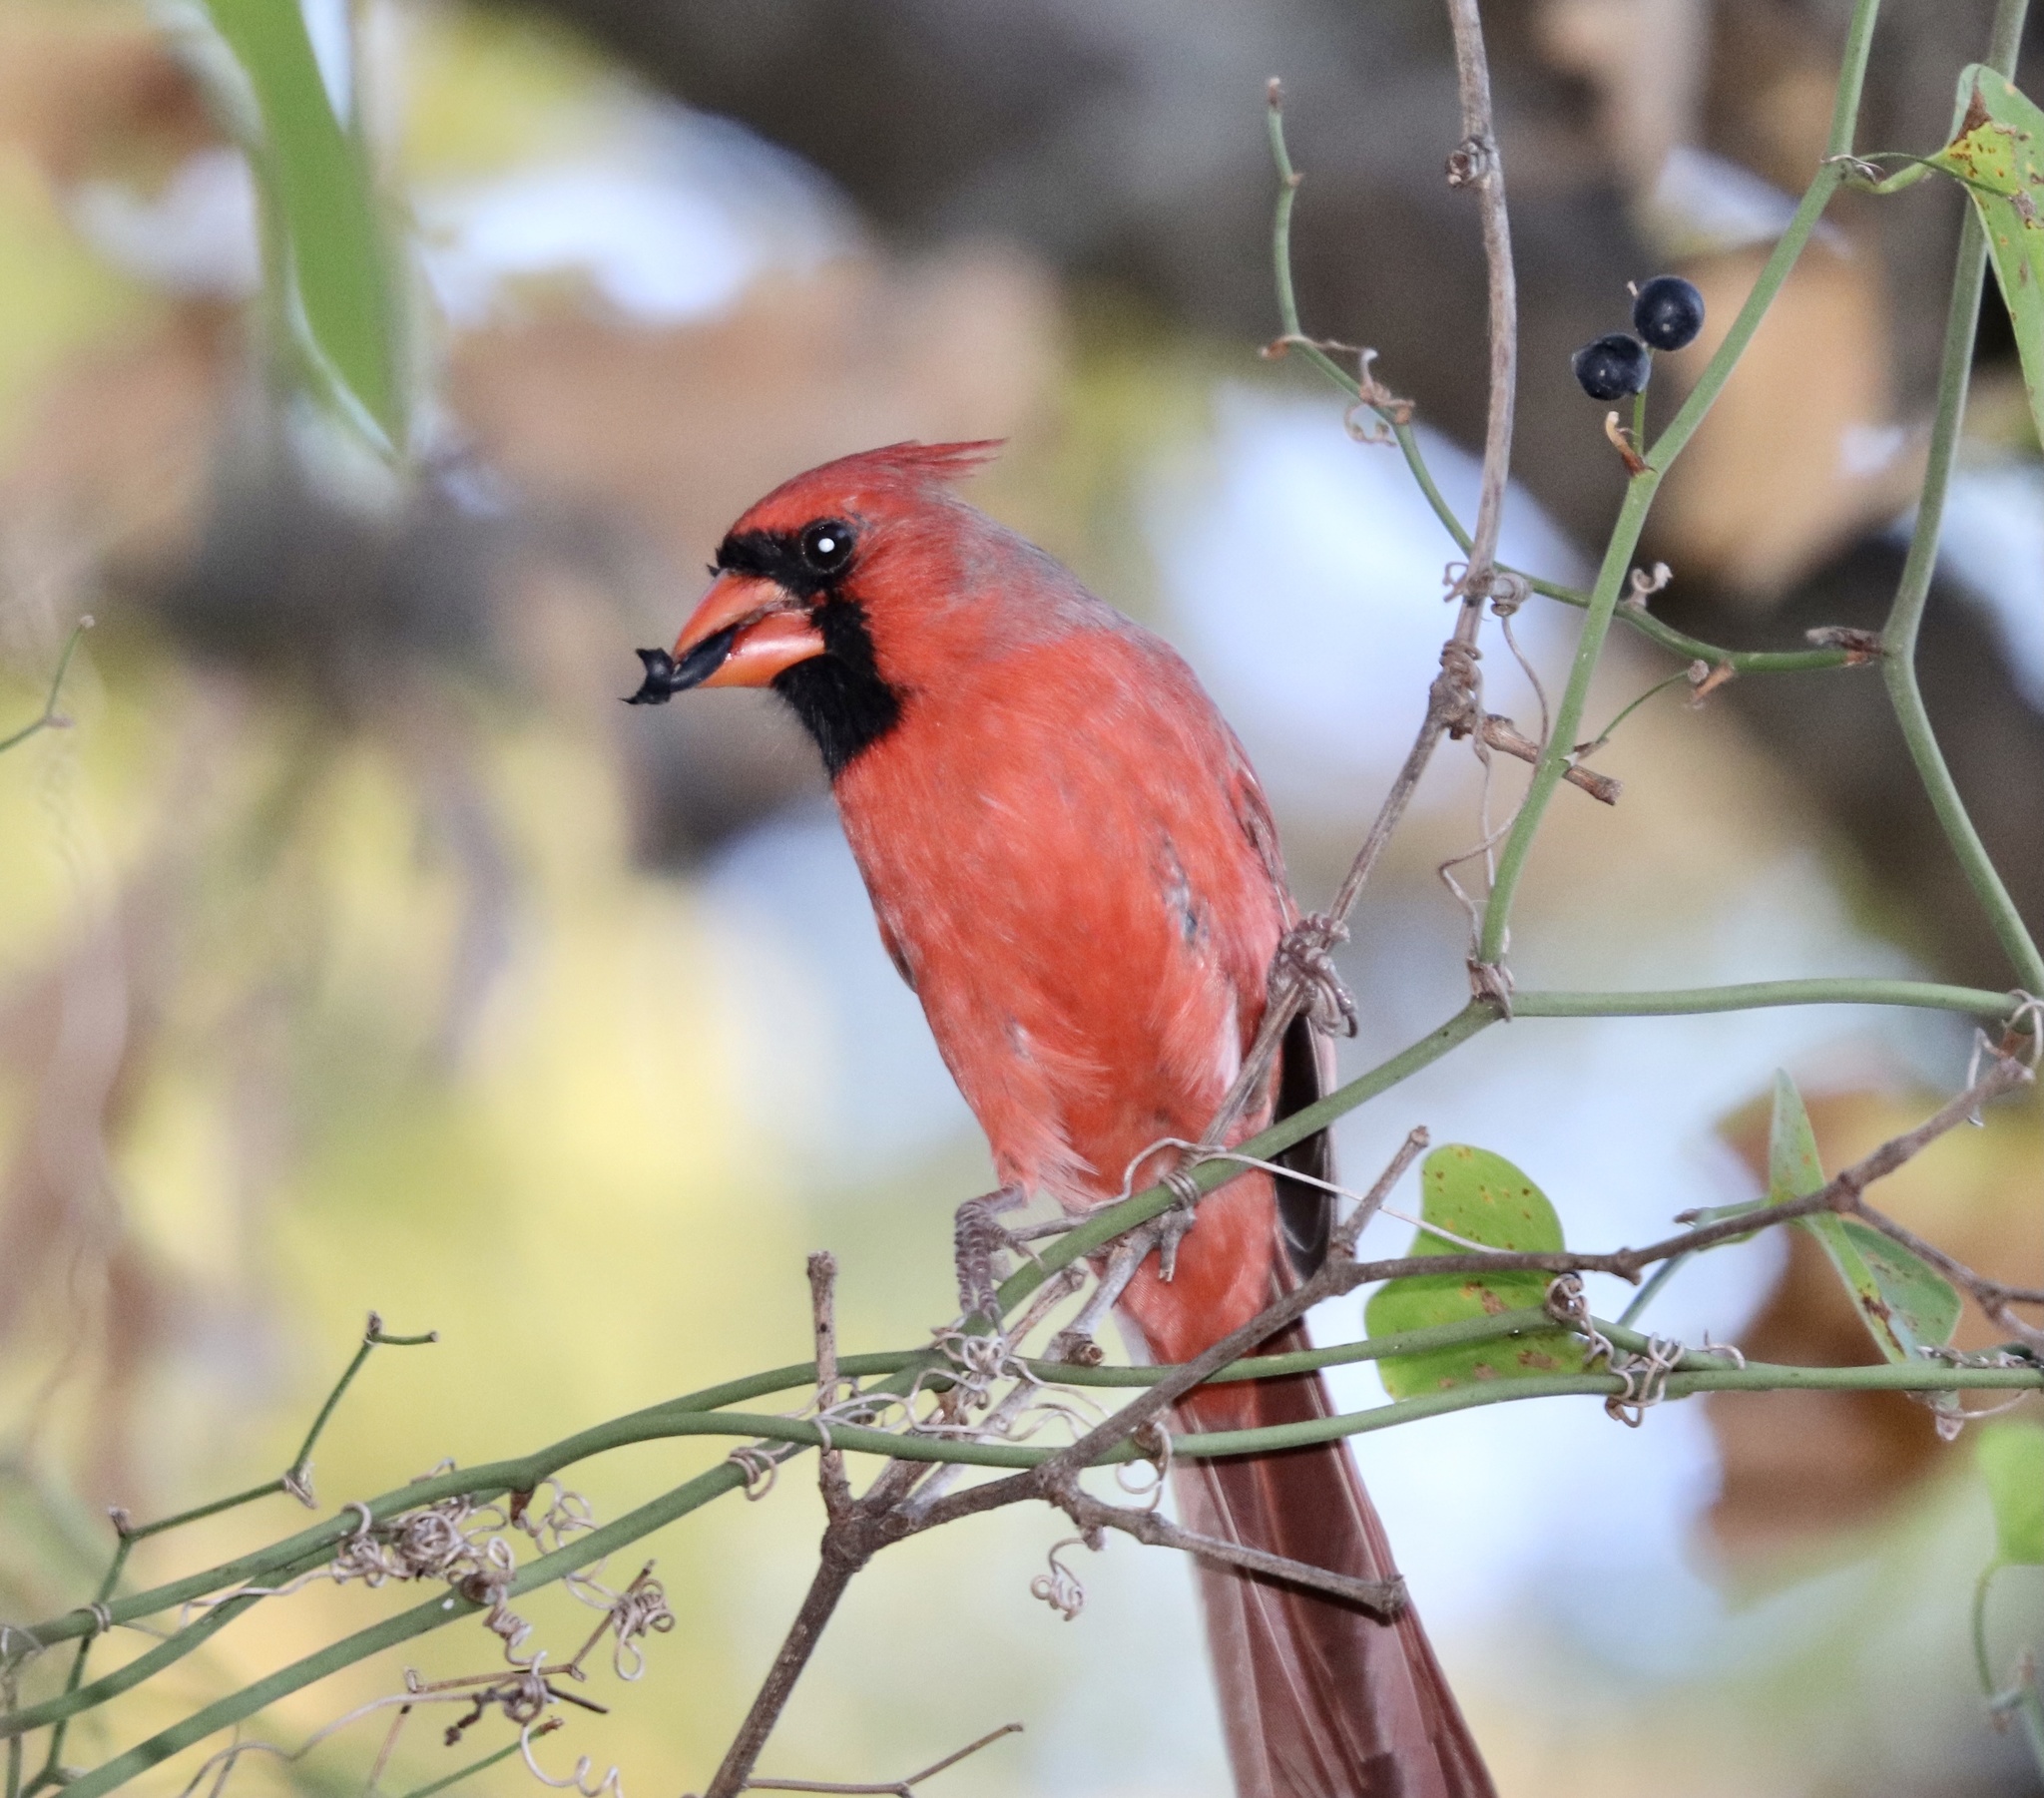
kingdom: Animalia
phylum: Chordata
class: Aves
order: Passeriformes
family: Cardinalidae
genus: Cardinalis
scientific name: Cardinalis cardinalis
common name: Northern cardinal
